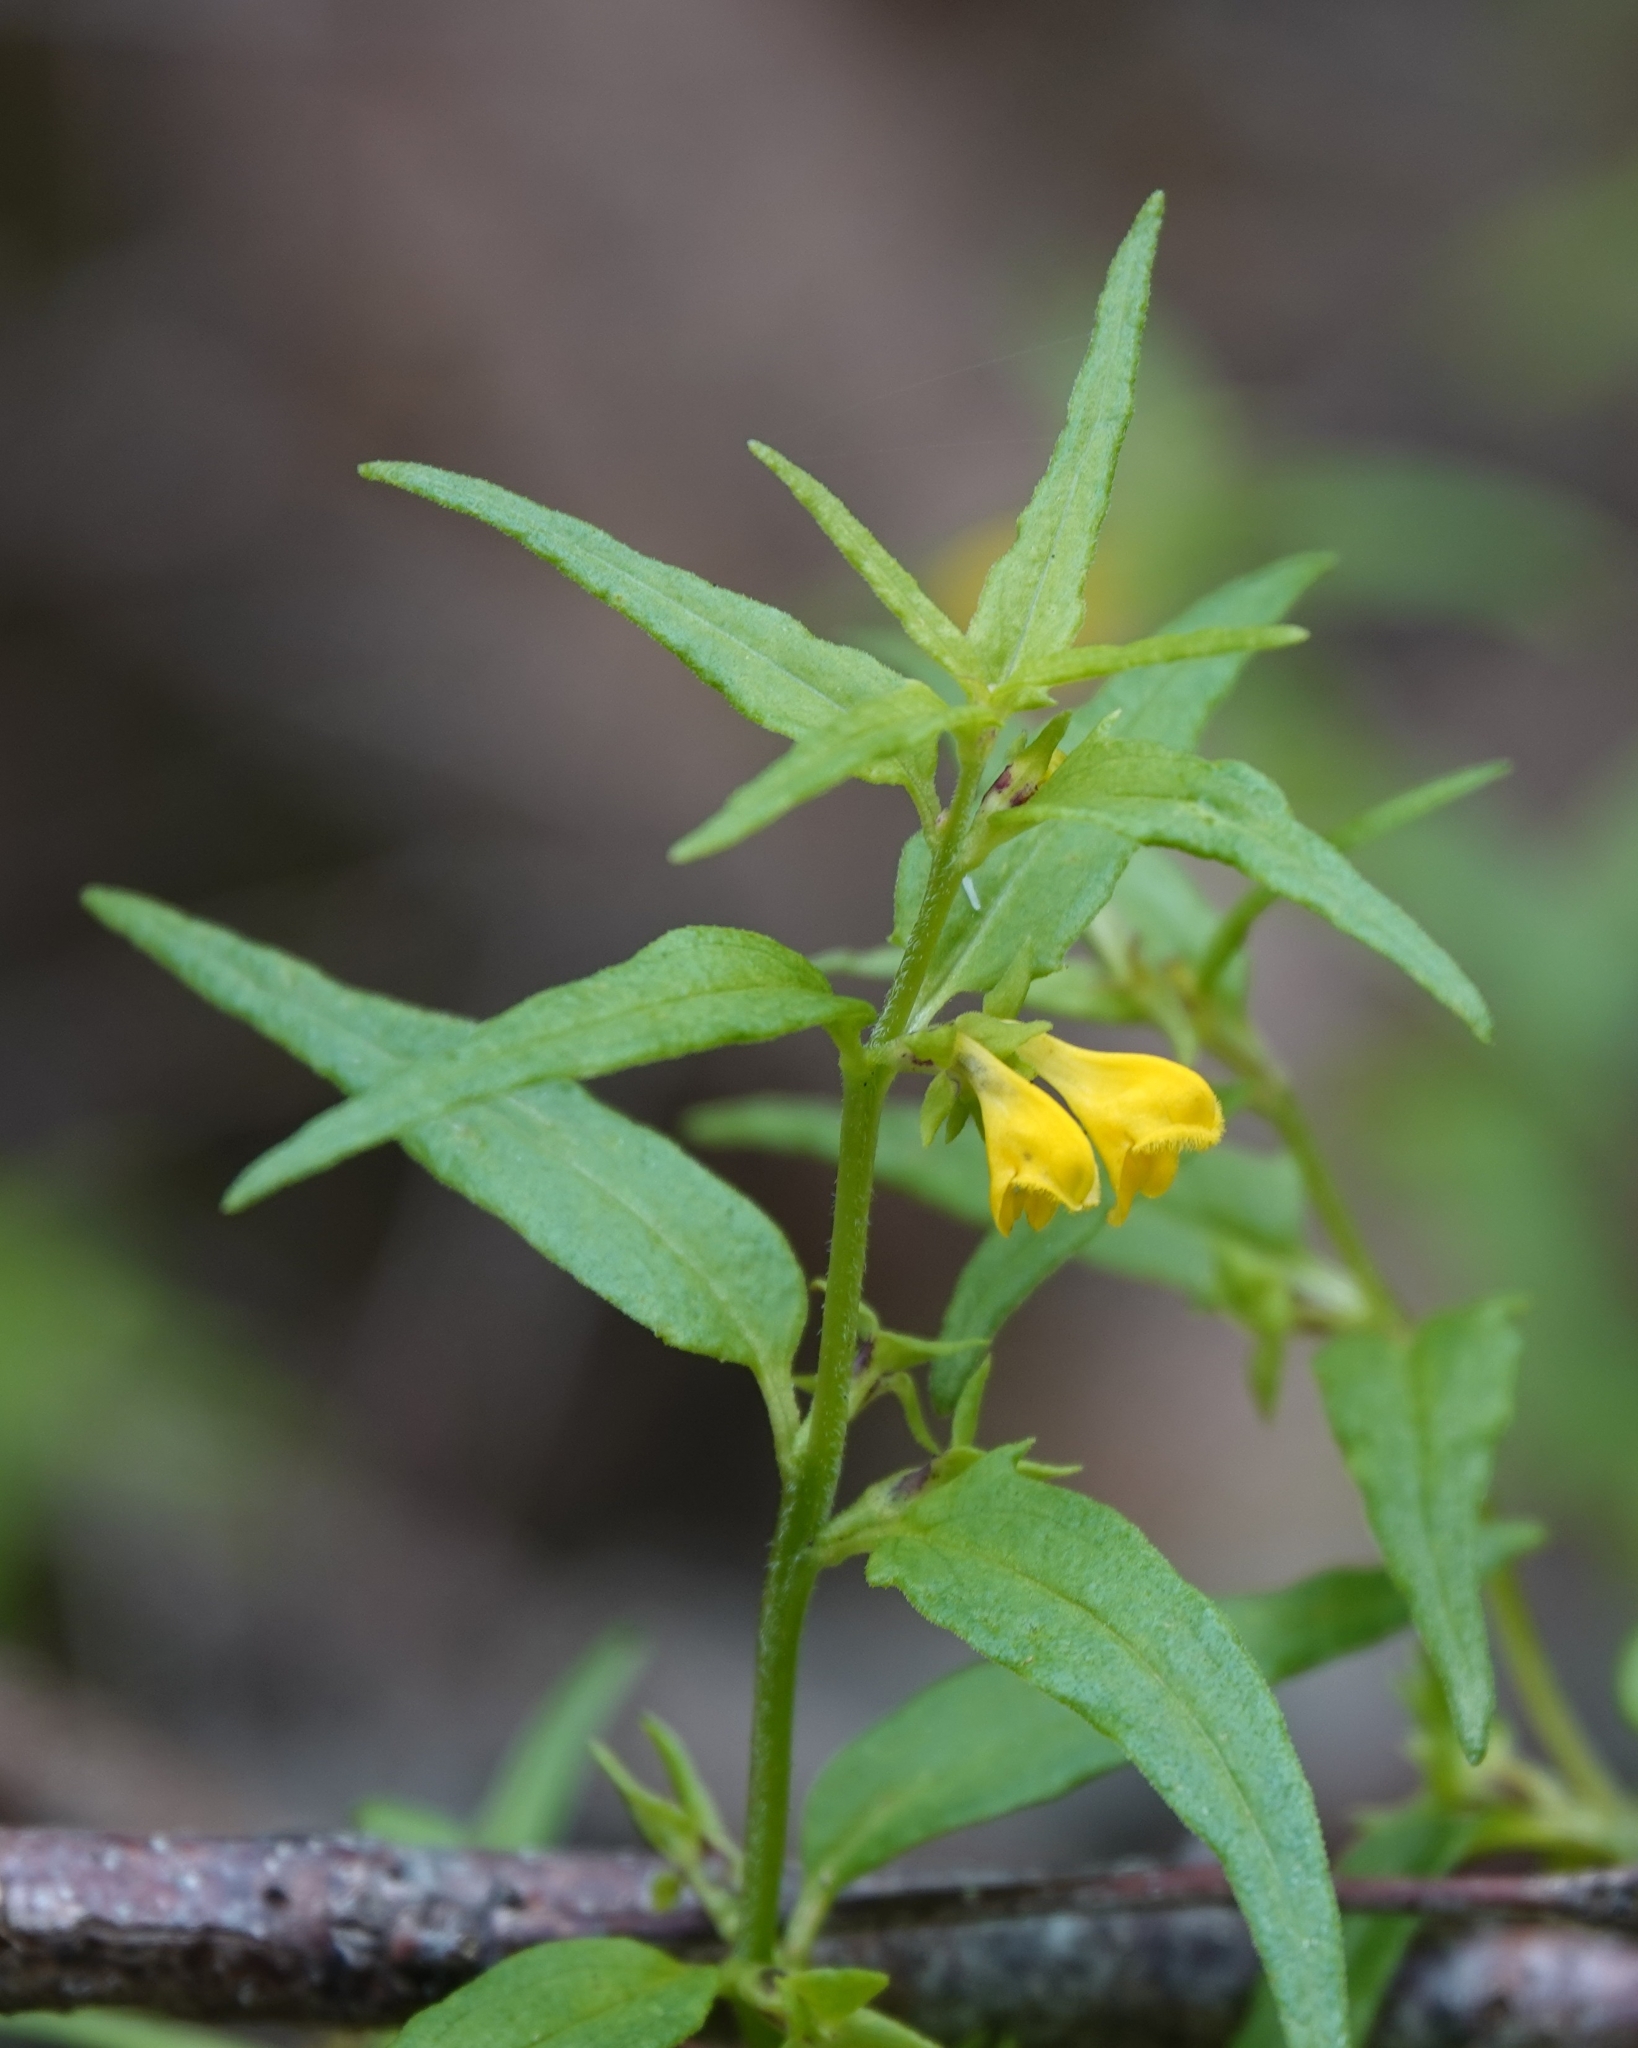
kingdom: Plantae
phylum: Tracheophyta
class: Magnoliopsida
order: Lamiales
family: Orobanchaceae
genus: Melampyrum
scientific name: Melampyrum sylvaticum
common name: Small cow-wheat
